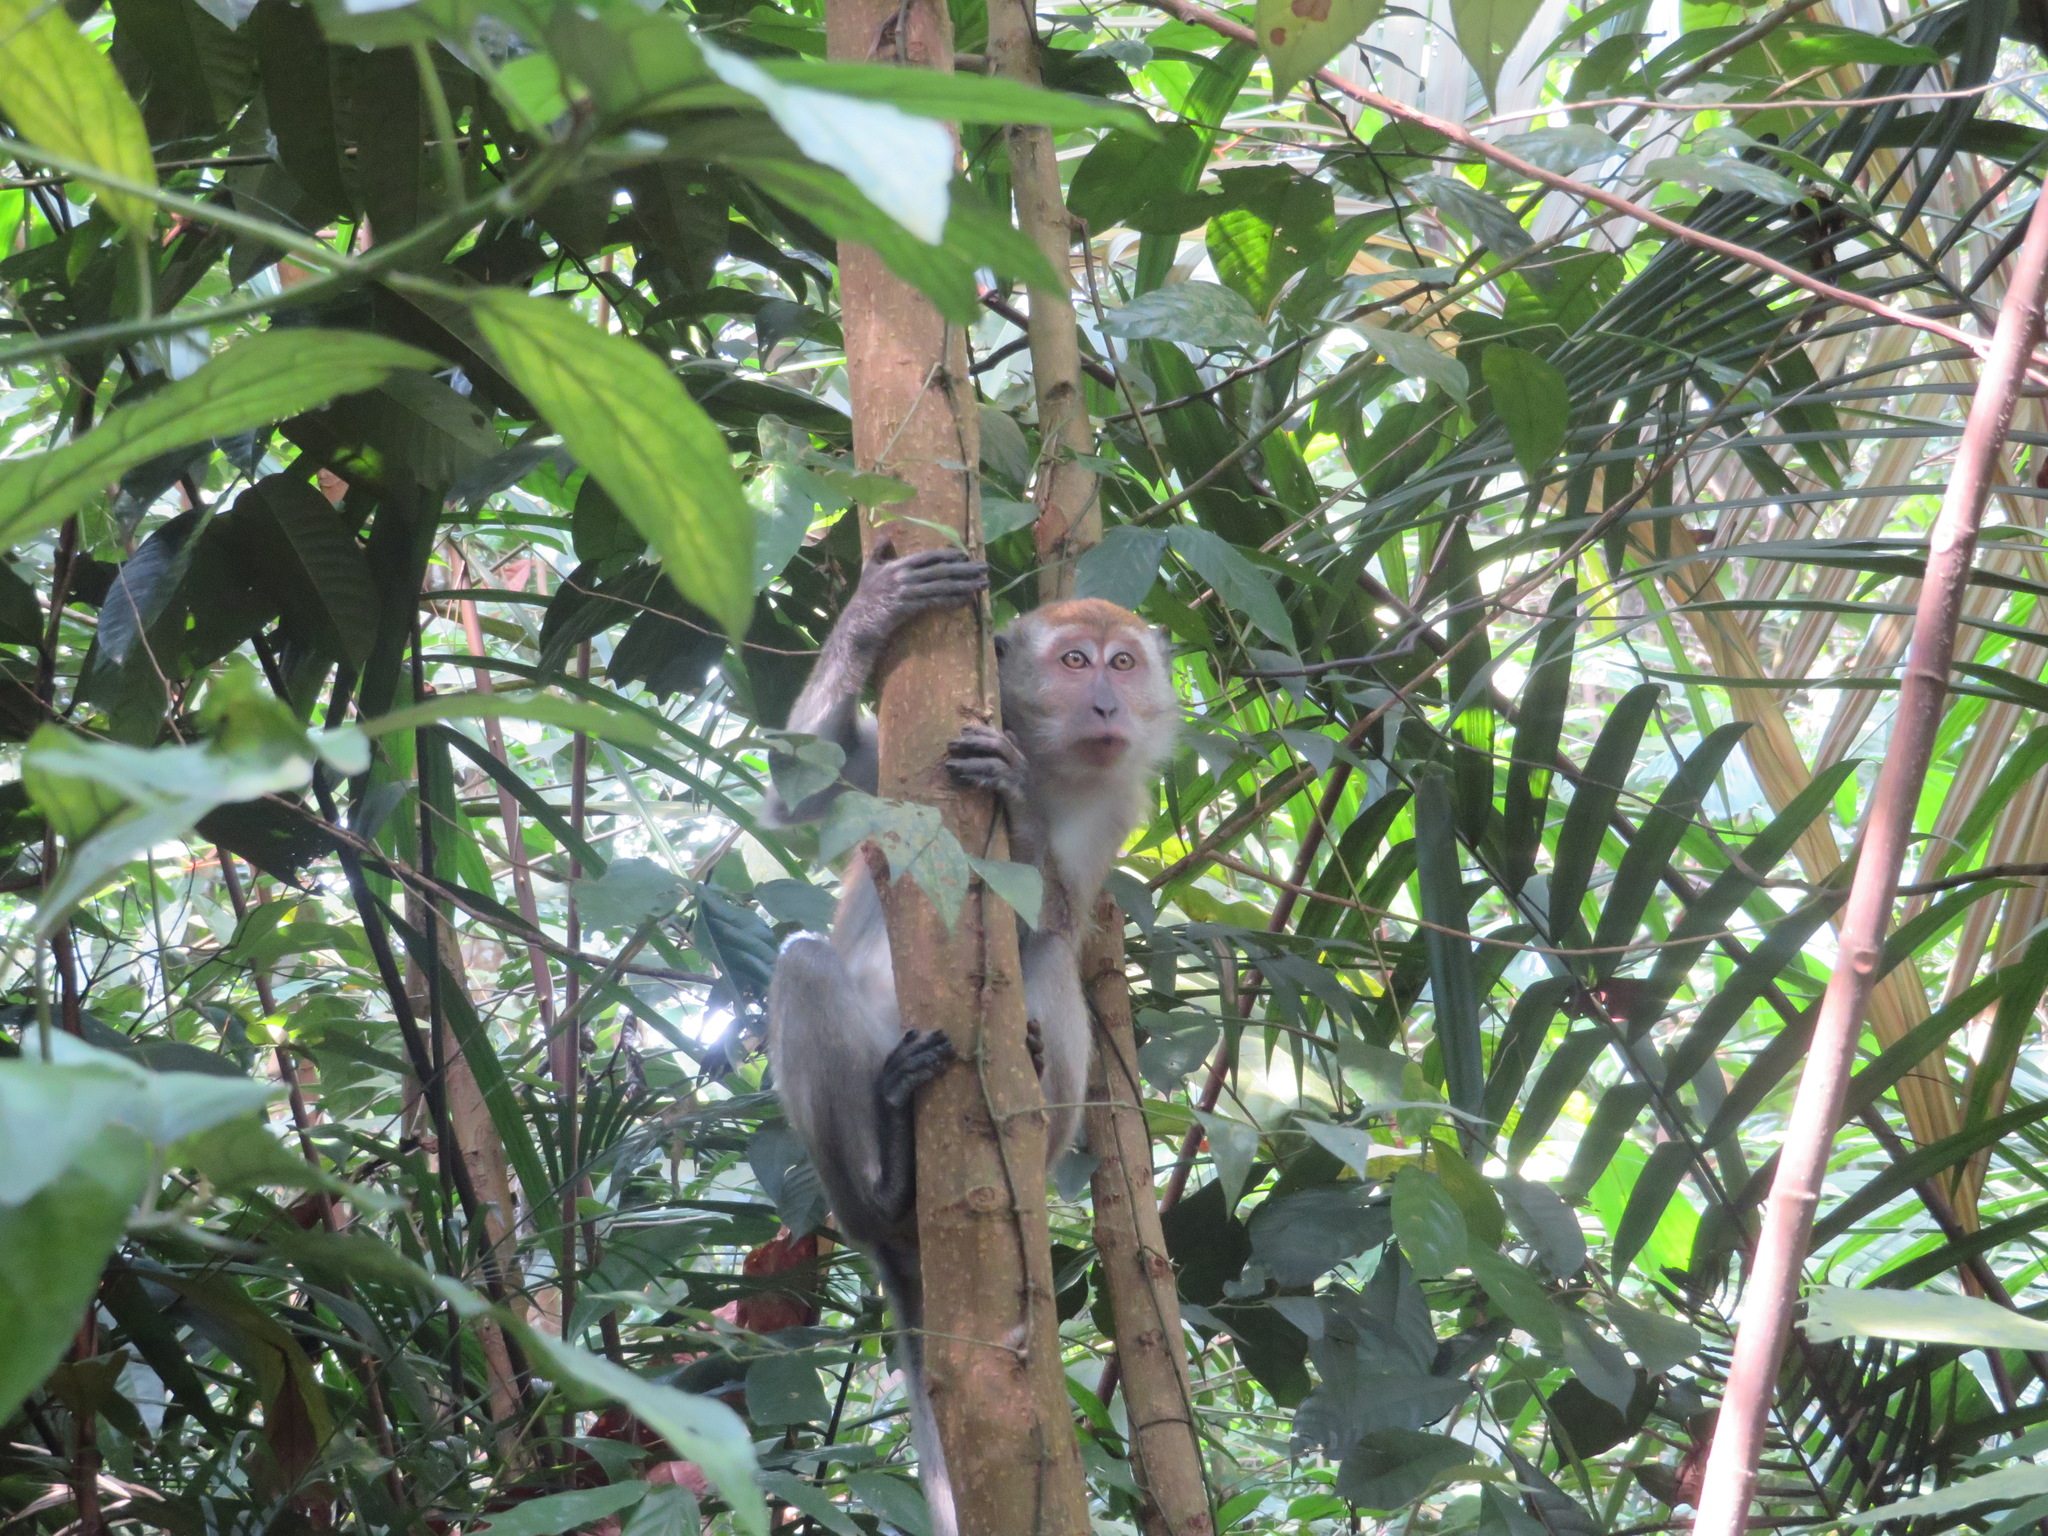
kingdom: Animalia
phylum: Chordata
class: Mammalia
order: Primates
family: Cercopithecidae
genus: Macaca
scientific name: Macaca fascicularis
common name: Crab-eating macaque
